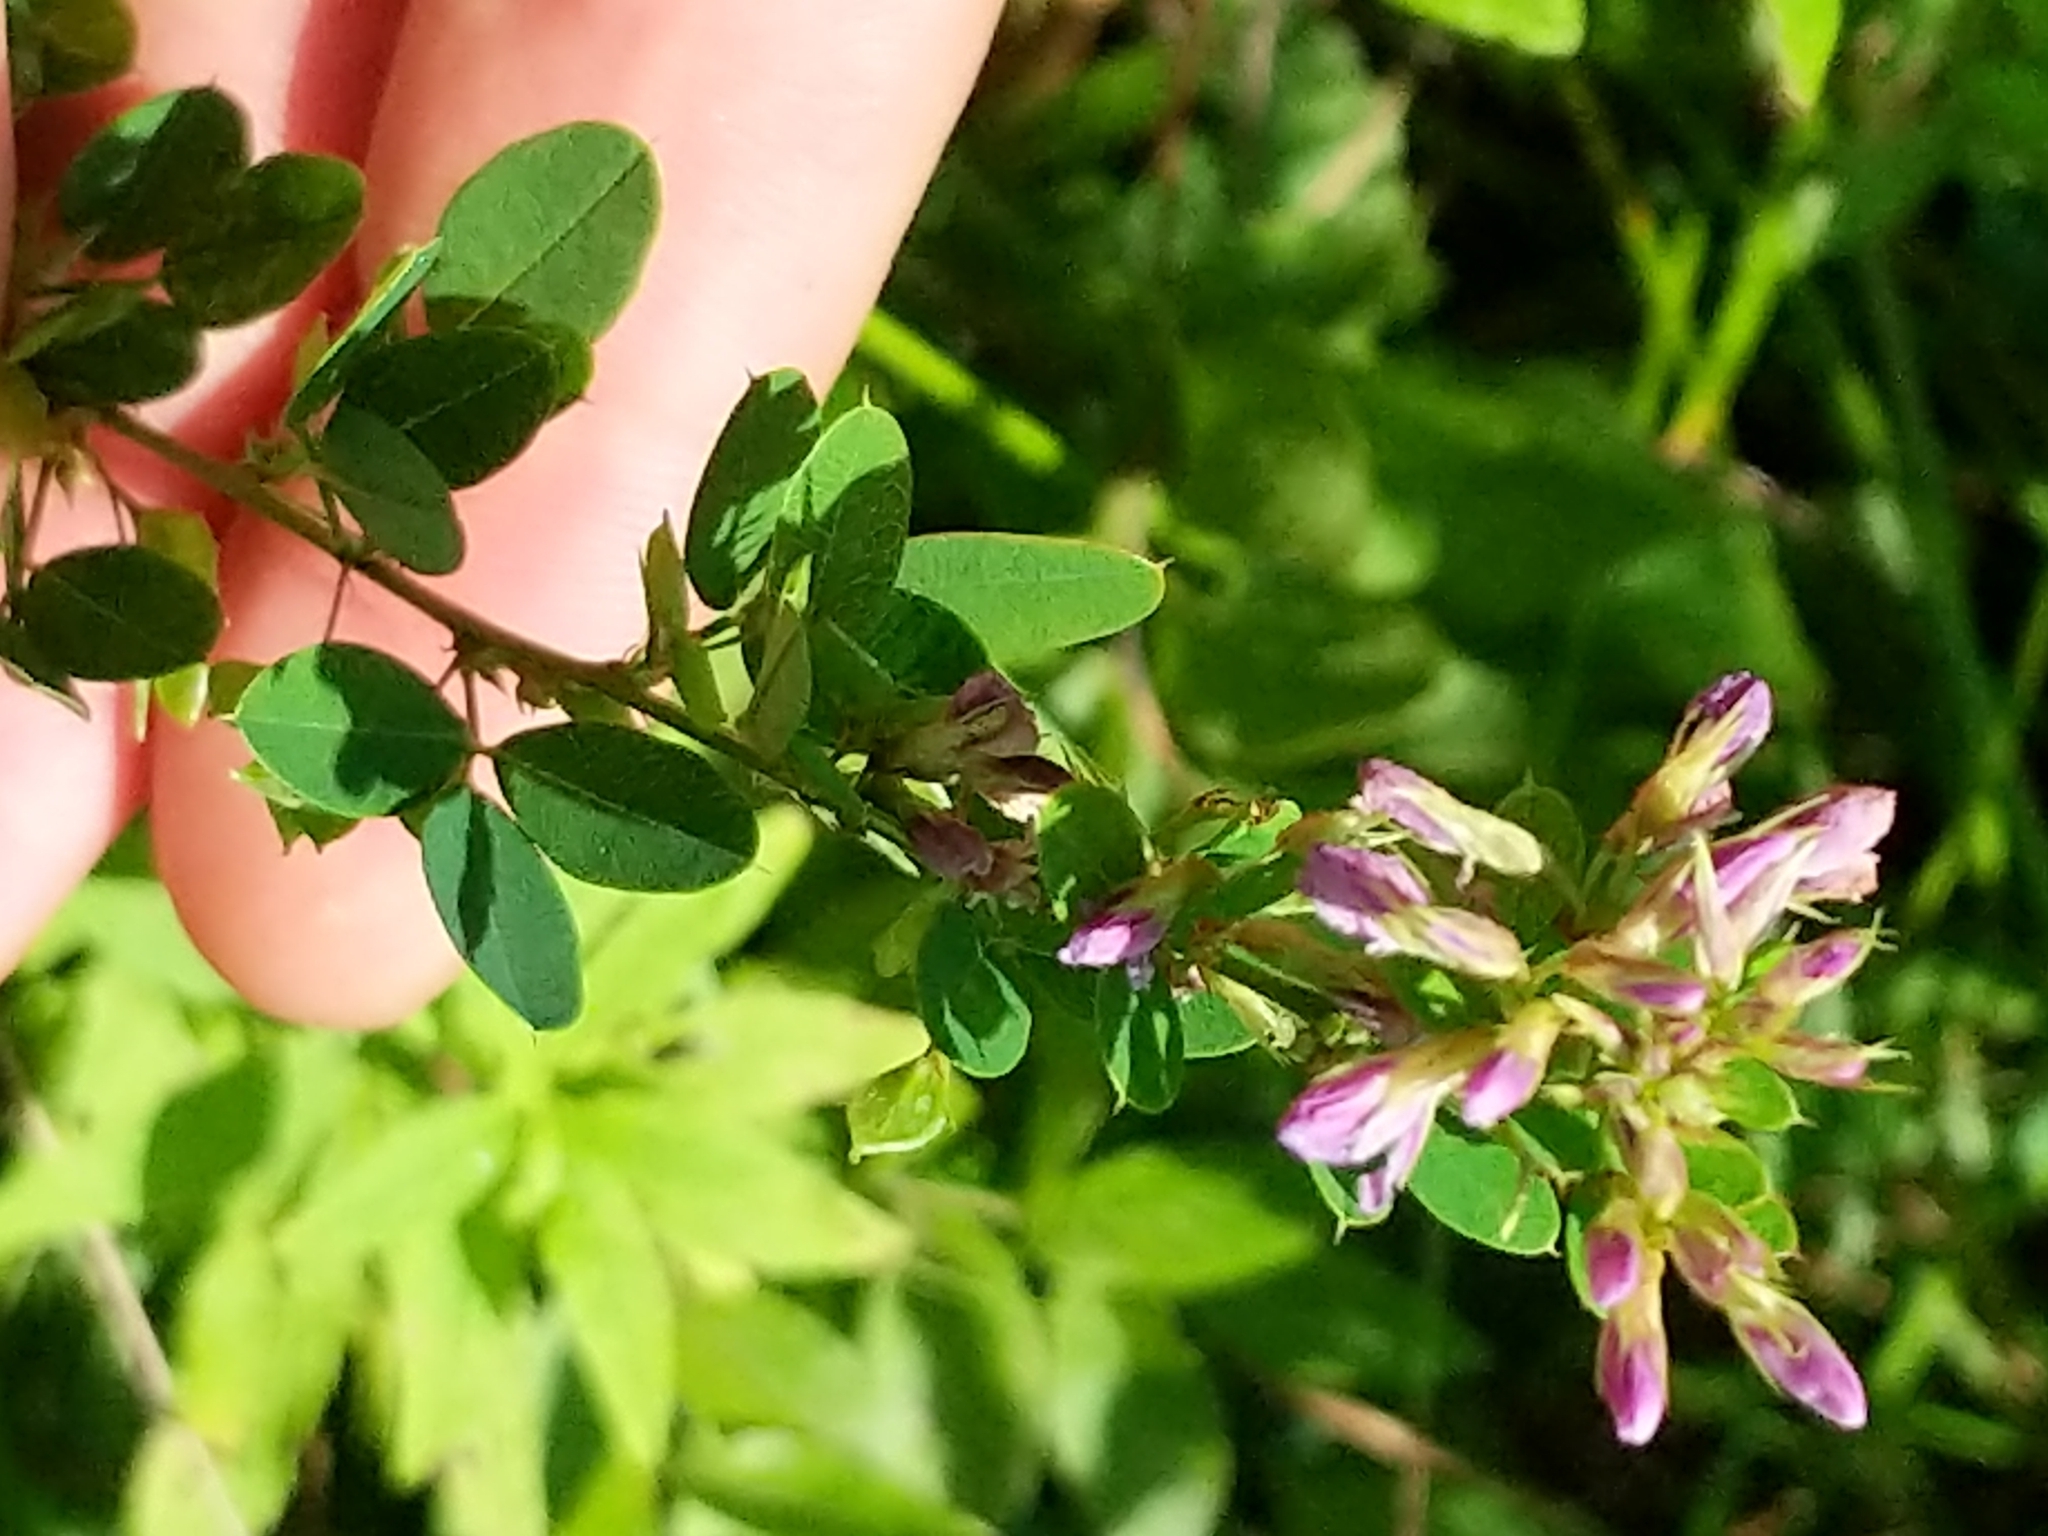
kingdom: Plantae
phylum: Tracheophyta
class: Magnoliopsida
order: Fabales
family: Fabaceae
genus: Lespedeza
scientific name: Lespedeza violacea
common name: Wand bush-clover
